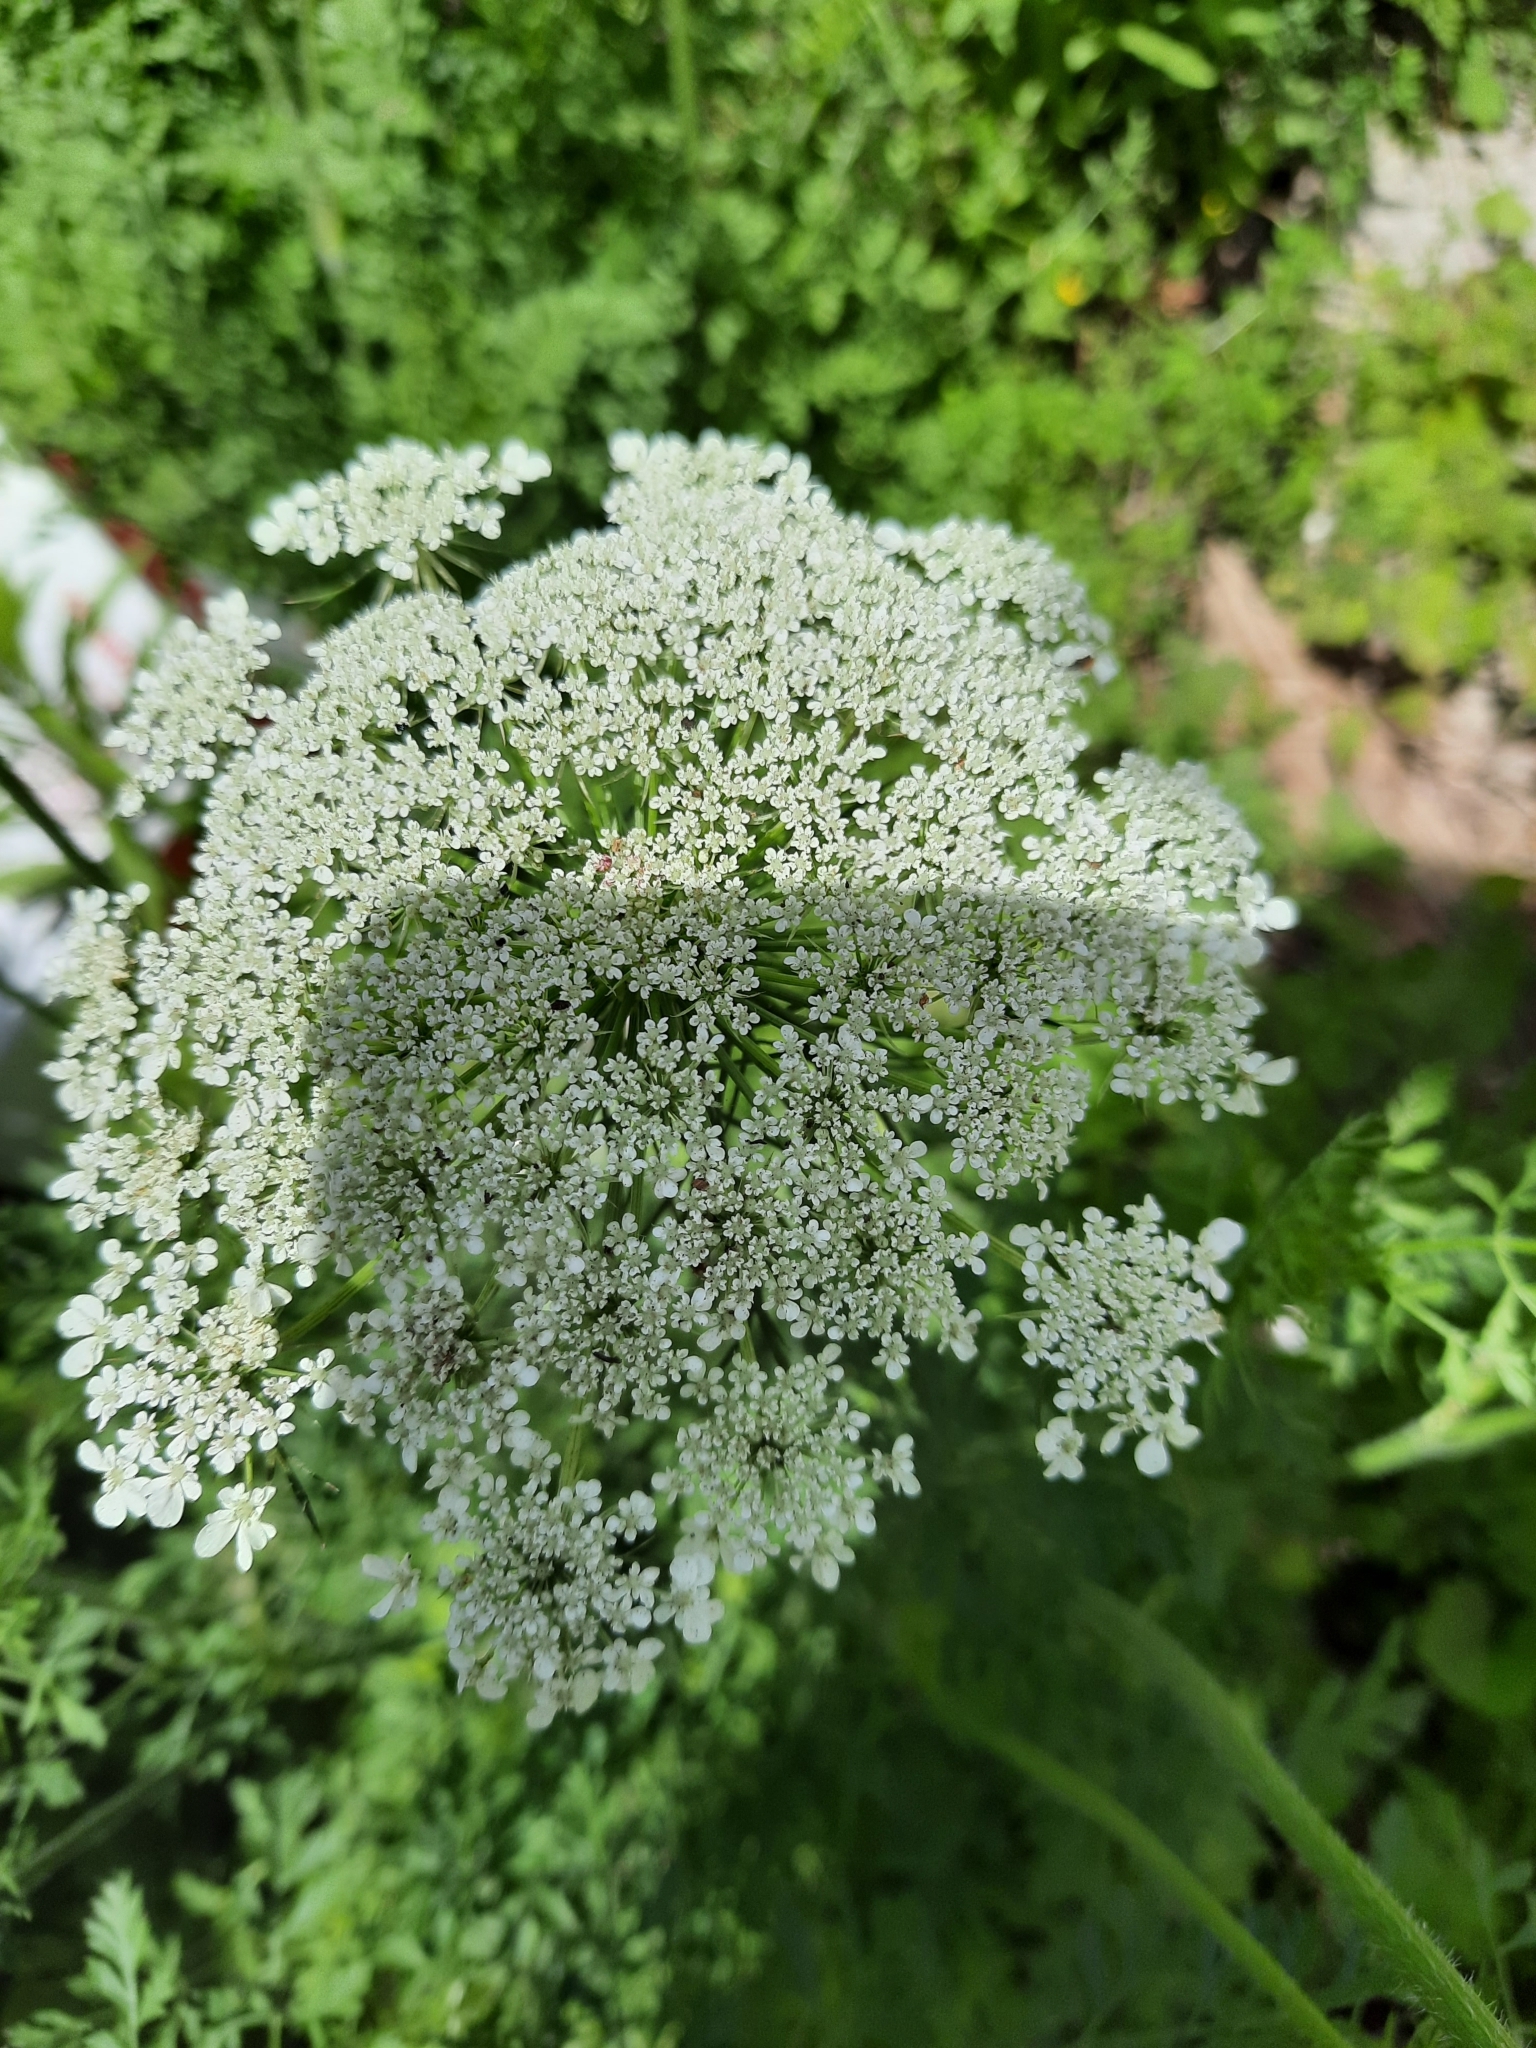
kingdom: Plantae
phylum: Tracheophyta
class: Magnoliopsida
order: Apiales
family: Apiaceae
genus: Daucus
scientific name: Daucus carota
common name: Wild carrot
